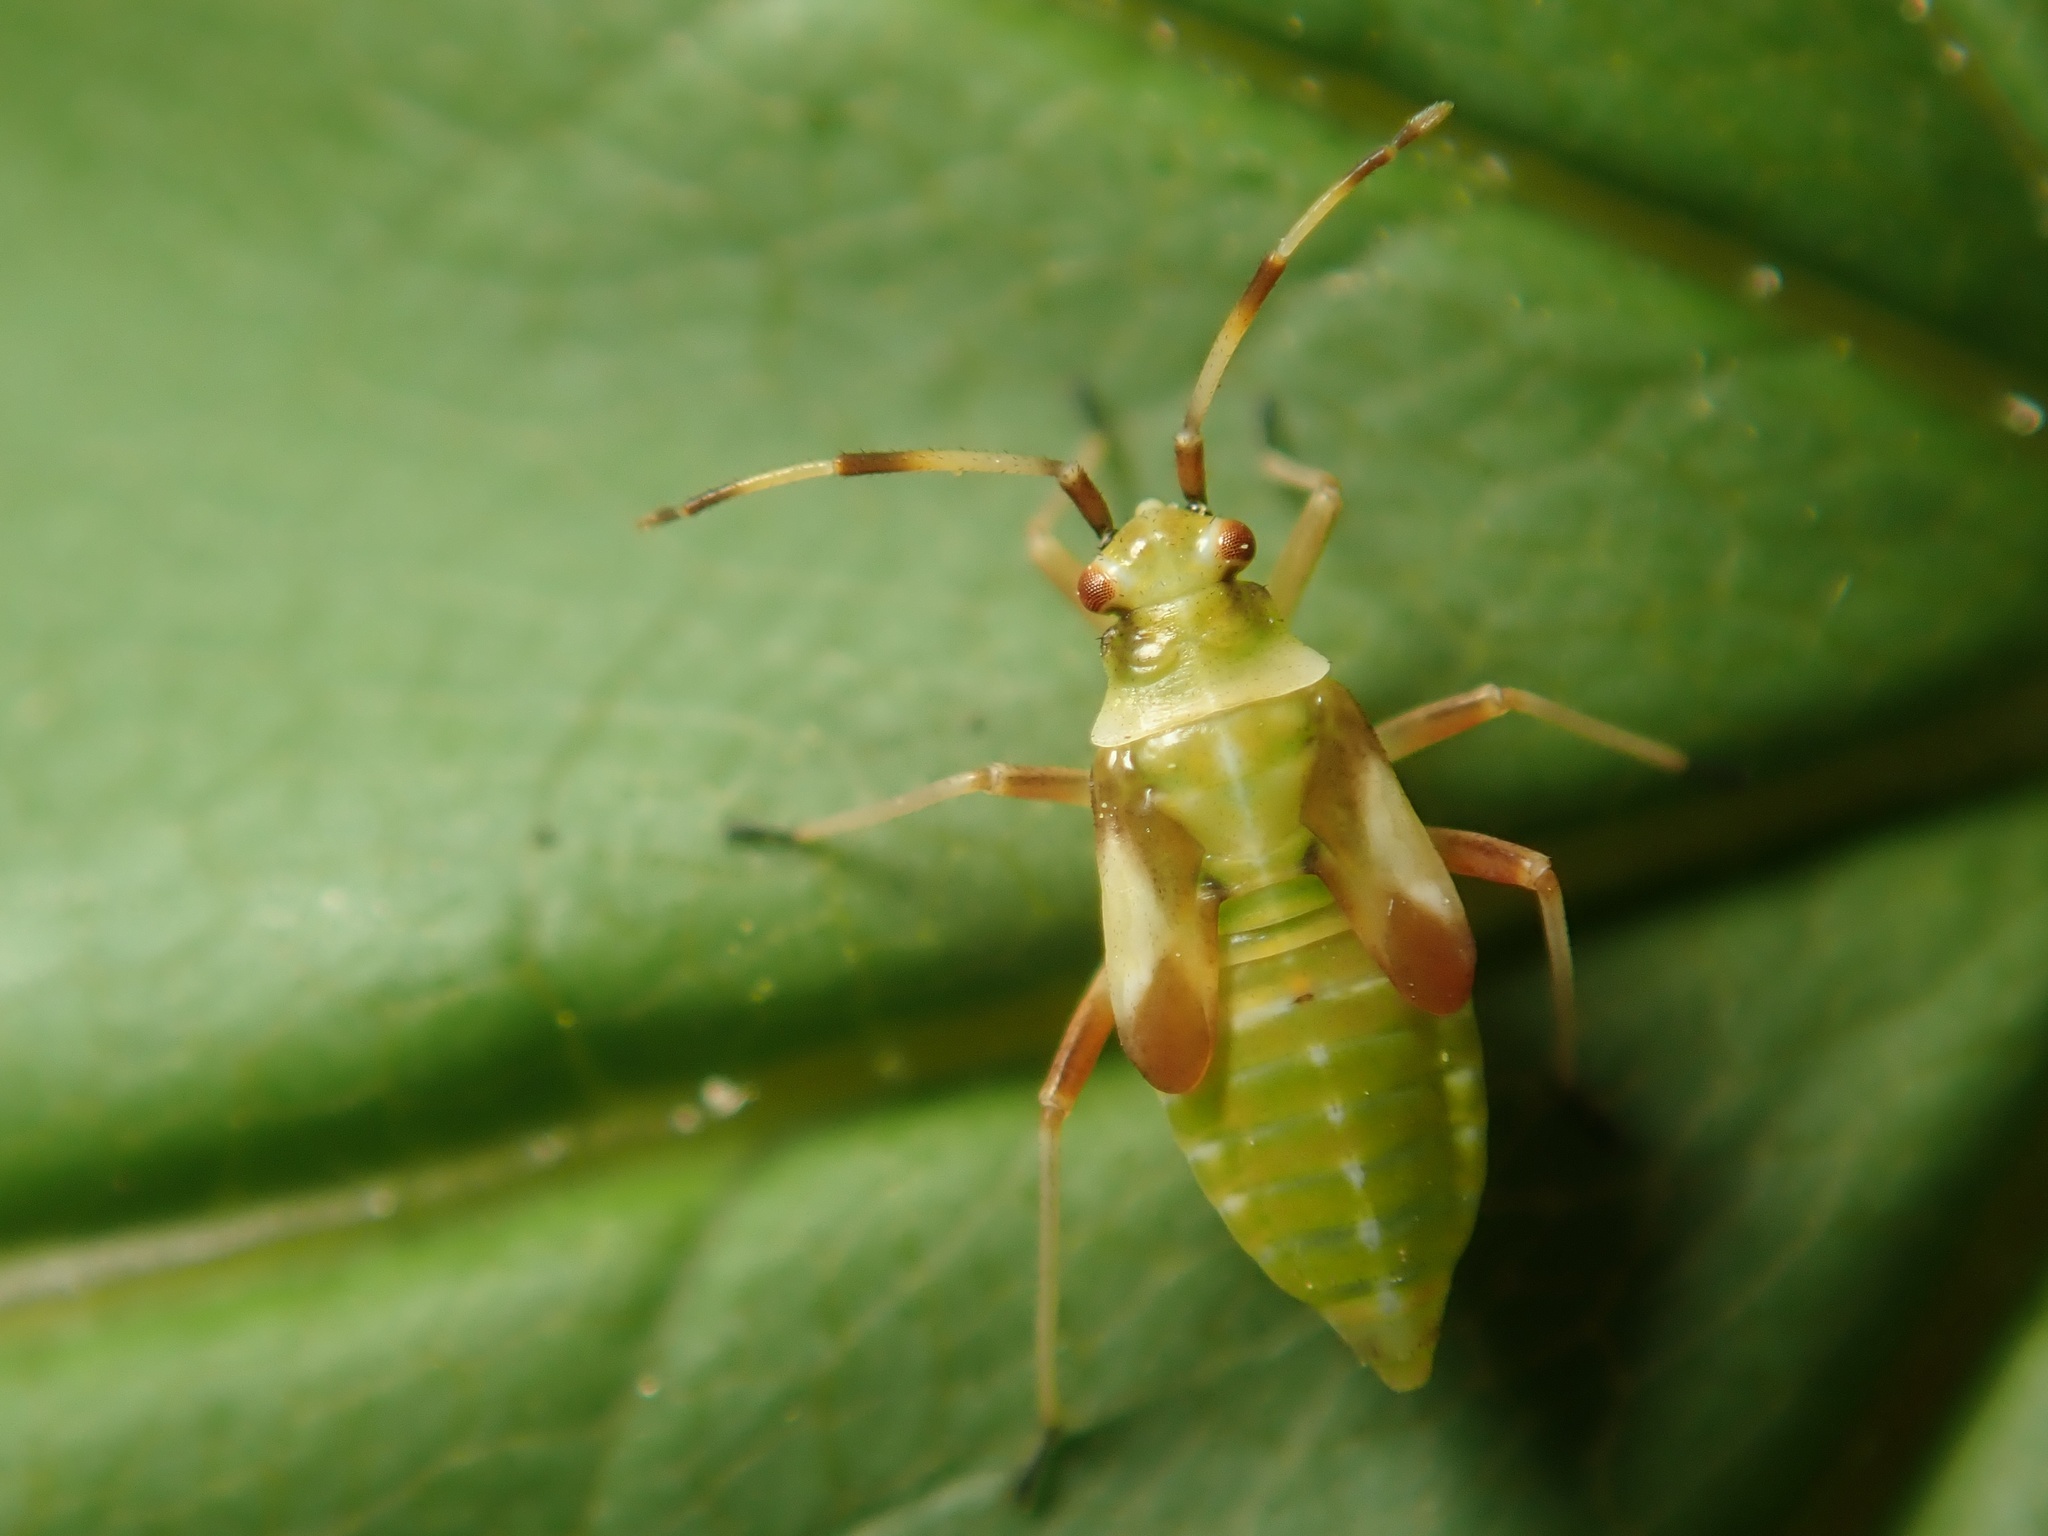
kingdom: Animalia
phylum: Arthropoda
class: Insecta
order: Hemiptera
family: Miridae
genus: Dryophilocoris
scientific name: Dryophilocoris flavoquadrimaculatus
